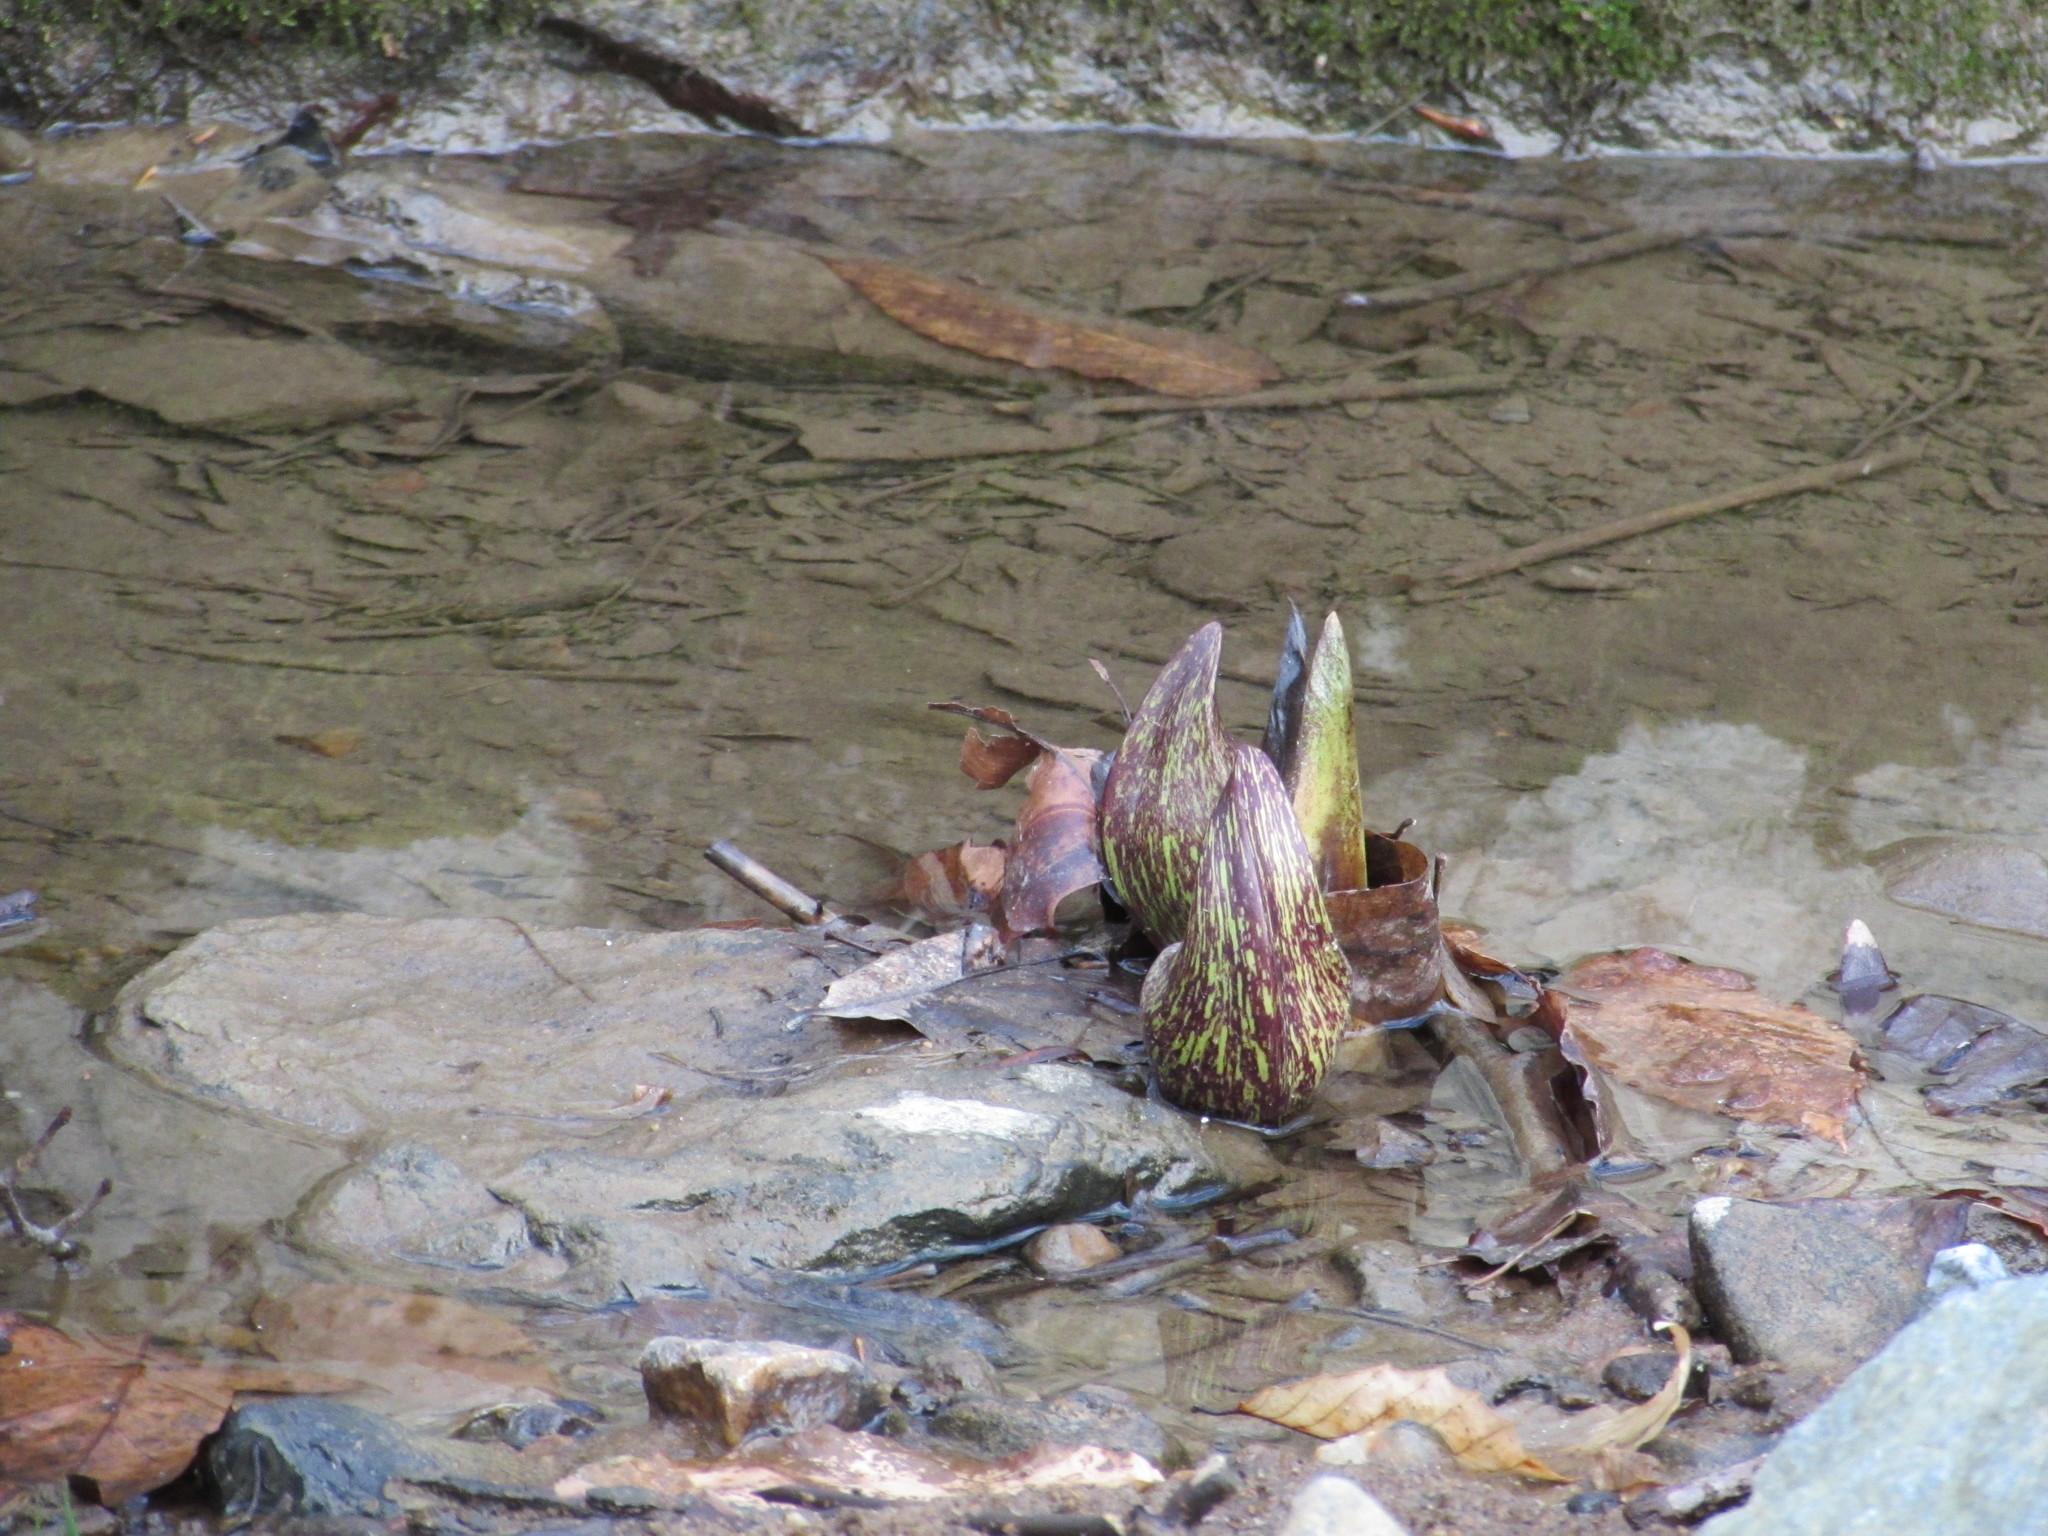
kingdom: Plantae
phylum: Tracheophyta
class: Liliopsida
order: Alismatales
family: Araceae
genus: Symplocarpus
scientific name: Symplocarpus foetidus
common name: Eastern skunk cabbage
